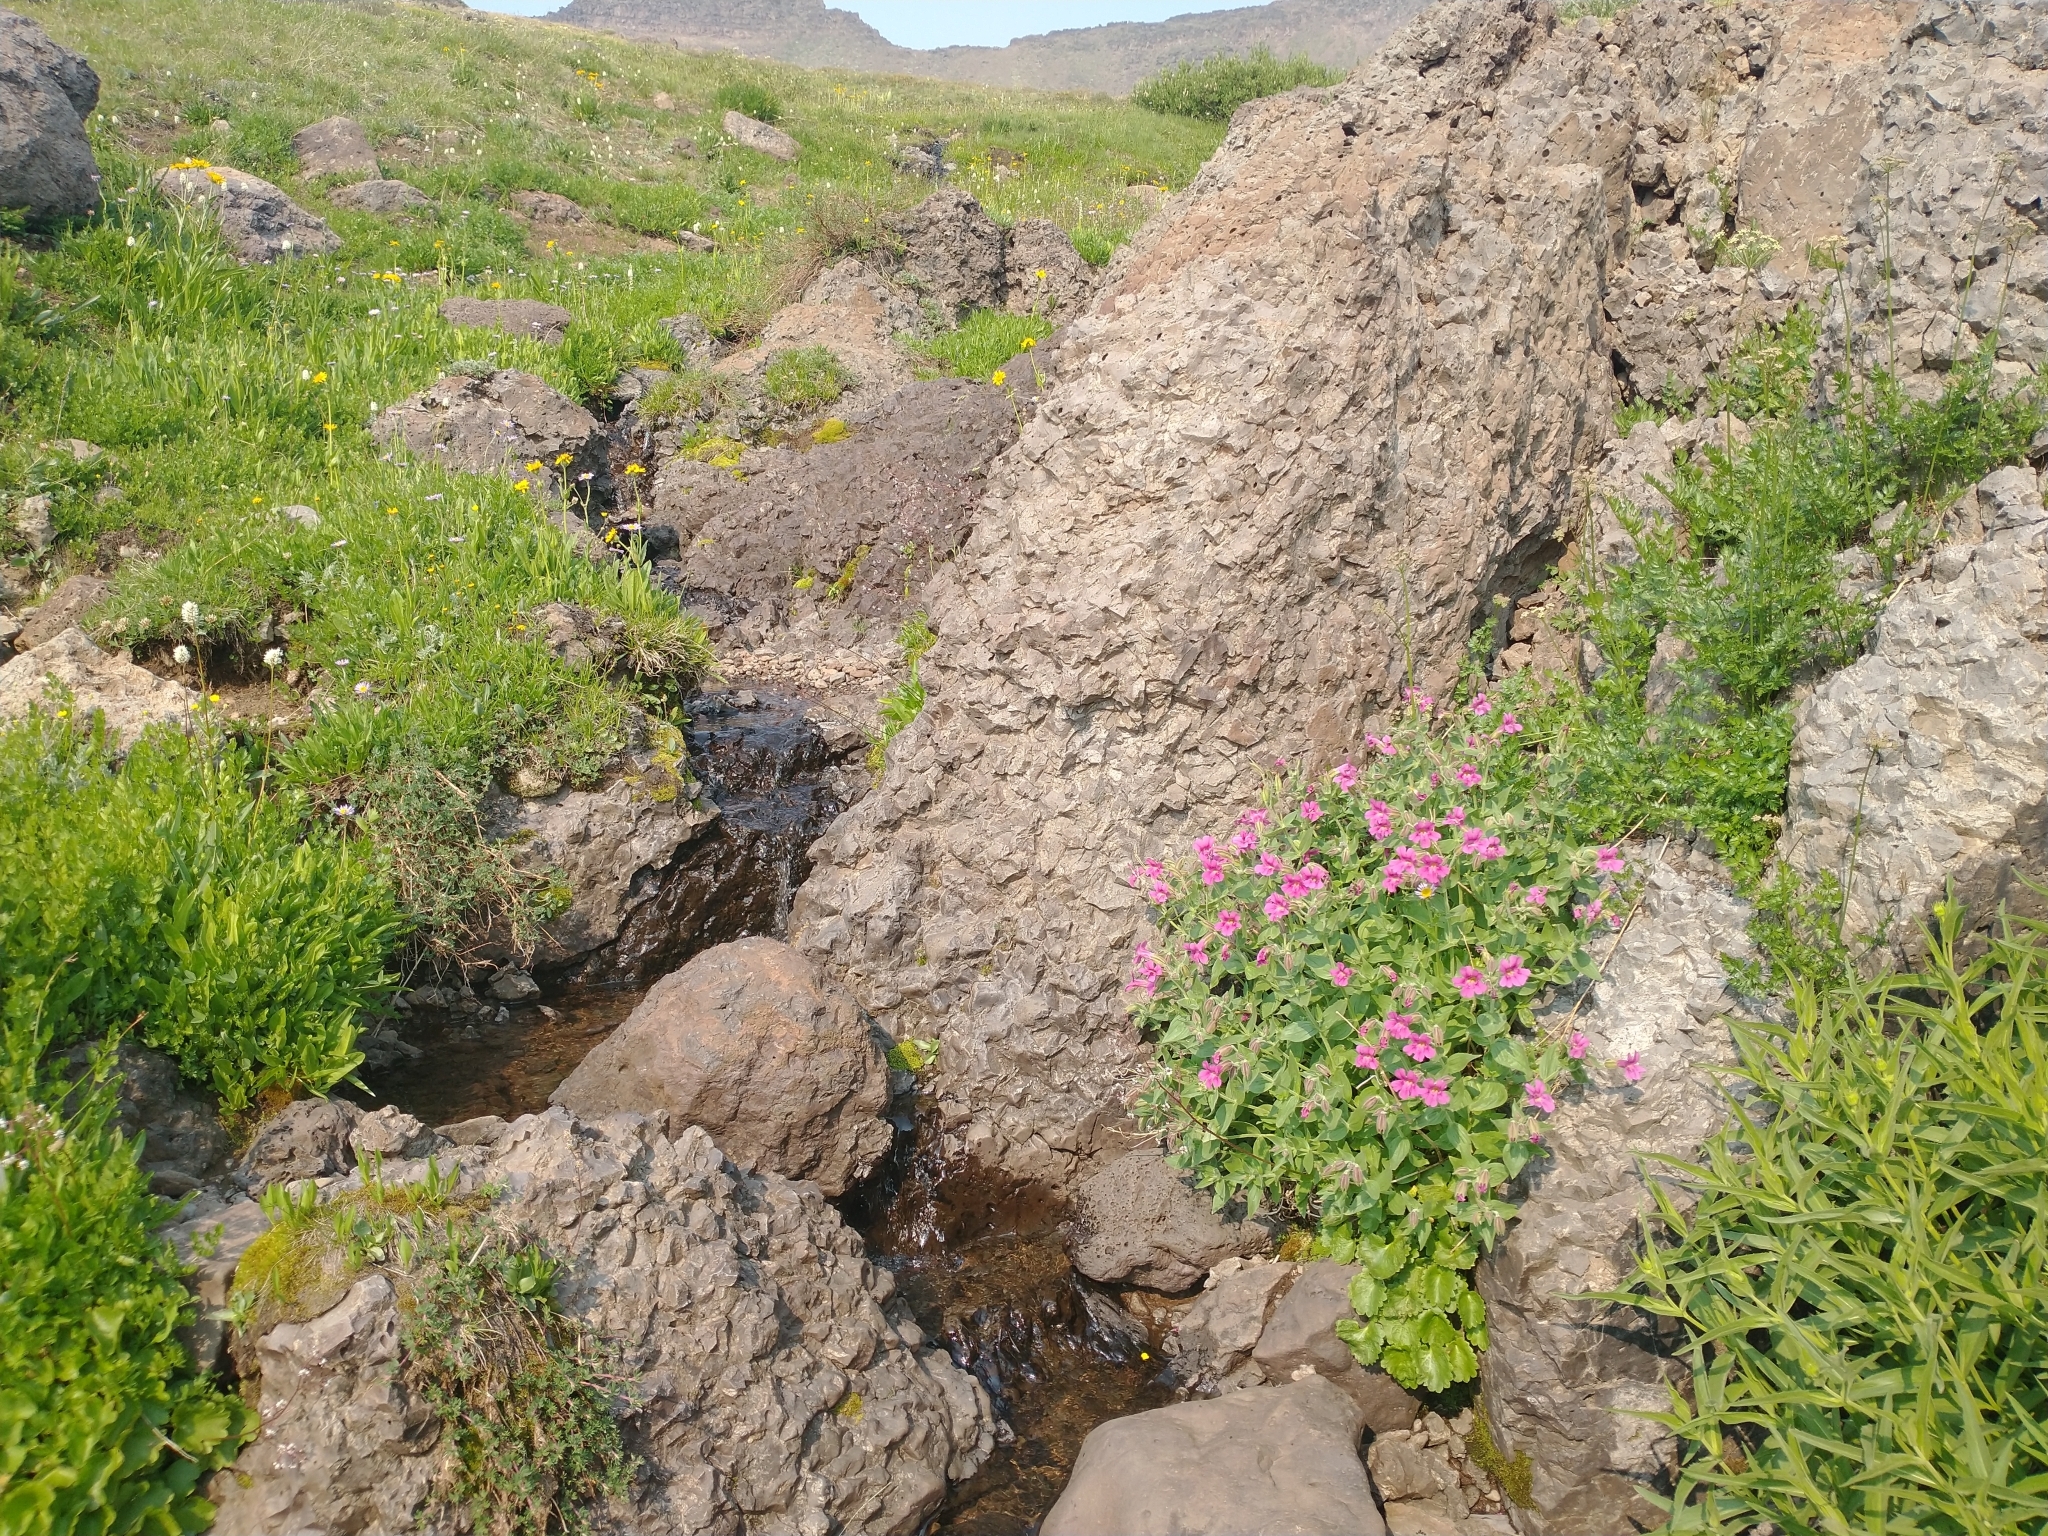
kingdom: Plantae
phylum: Tracheophyta
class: Magnoliopsida
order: Lamiales
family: Phrymaceae
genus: Erythranthe
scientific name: Erythranthe lewisii
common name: Lewis's monkey-flower
